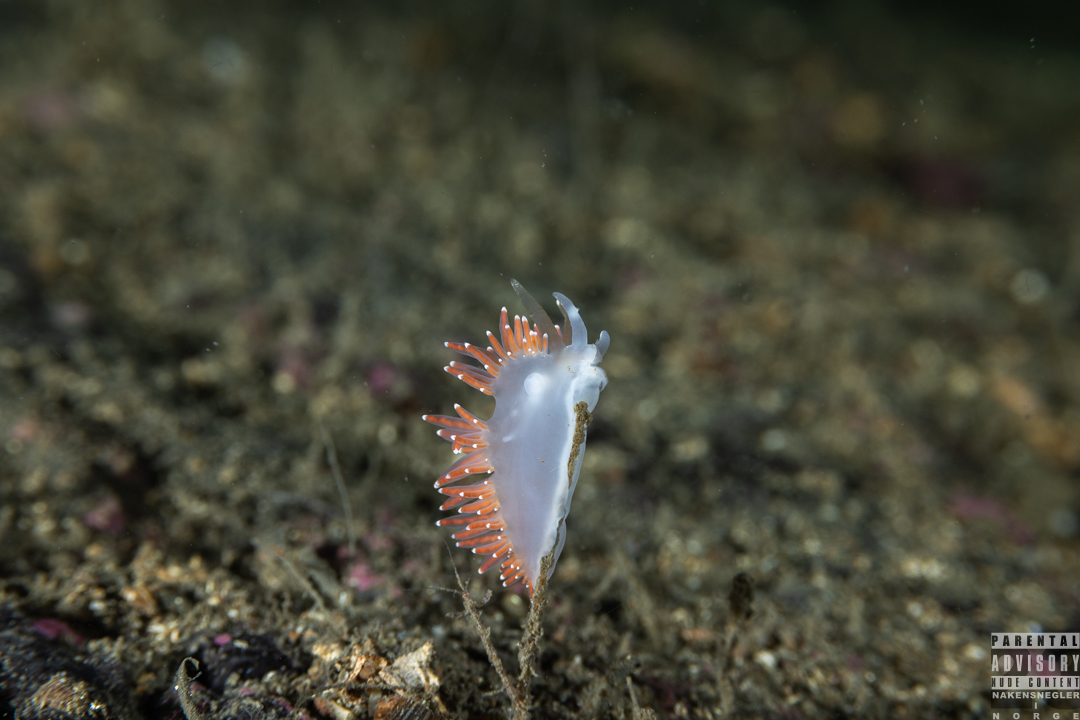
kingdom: Animalia
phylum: Mollusca
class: Gastropoda
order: Nudibranchia
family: Coryphellidae
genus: Coryphella
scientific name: Coryphella browni
